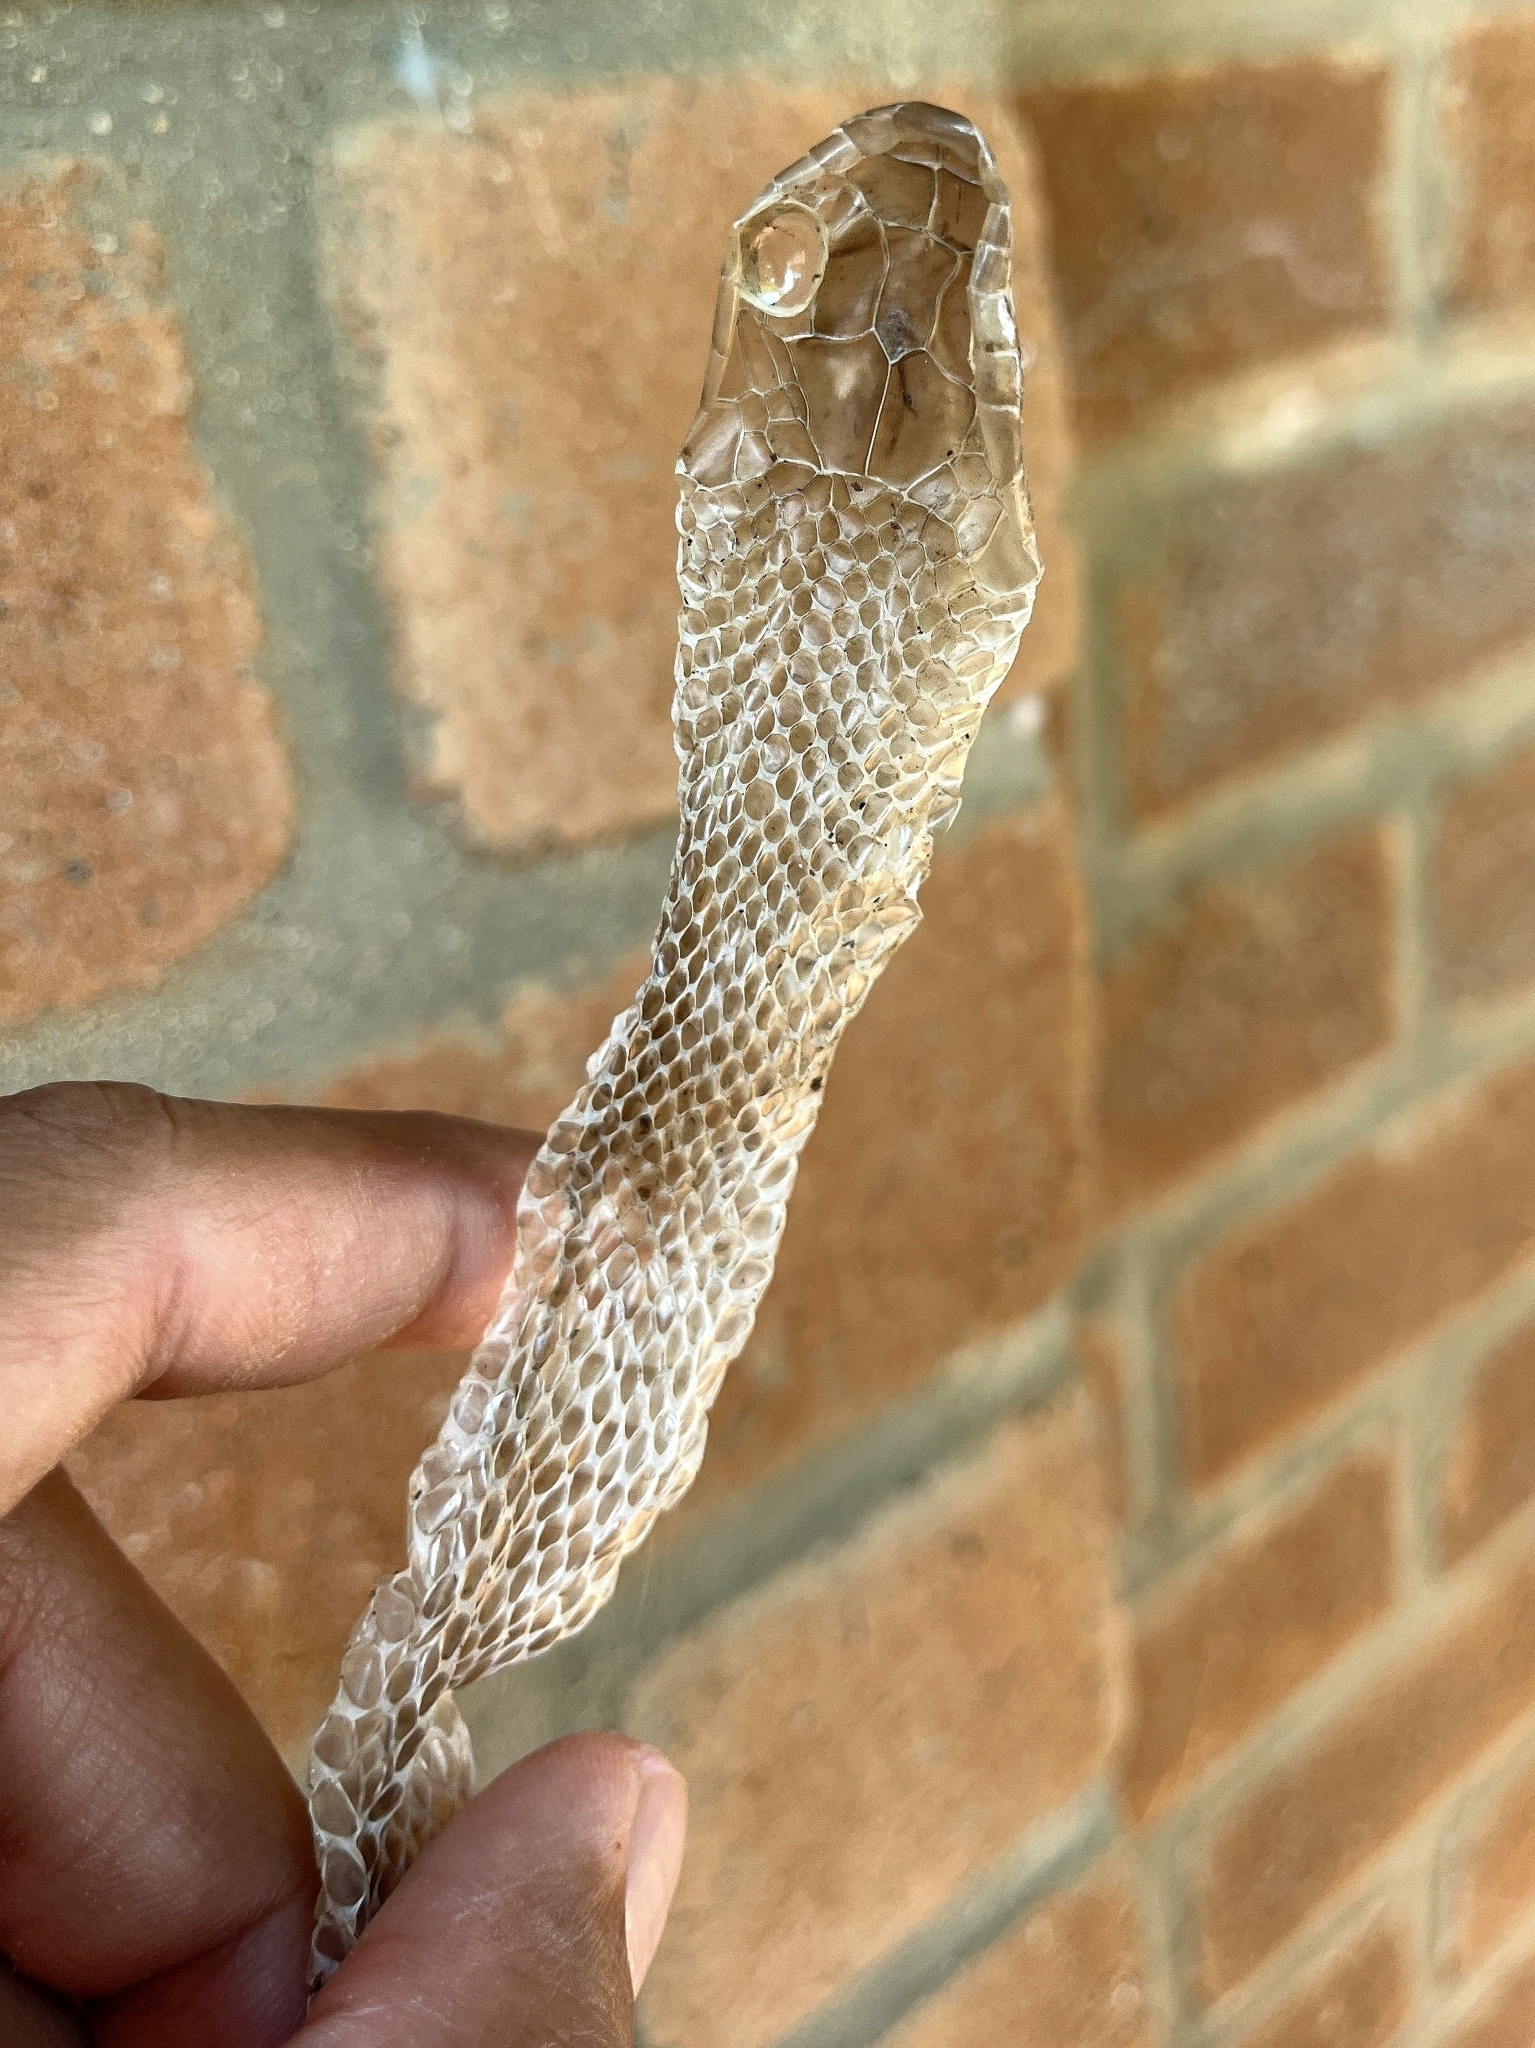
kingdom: Animalia
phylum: Chordata
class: Squamata
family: Colubridae
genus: Ptyas
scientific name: Ptyas mucosa
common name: Oriental ratsnake
